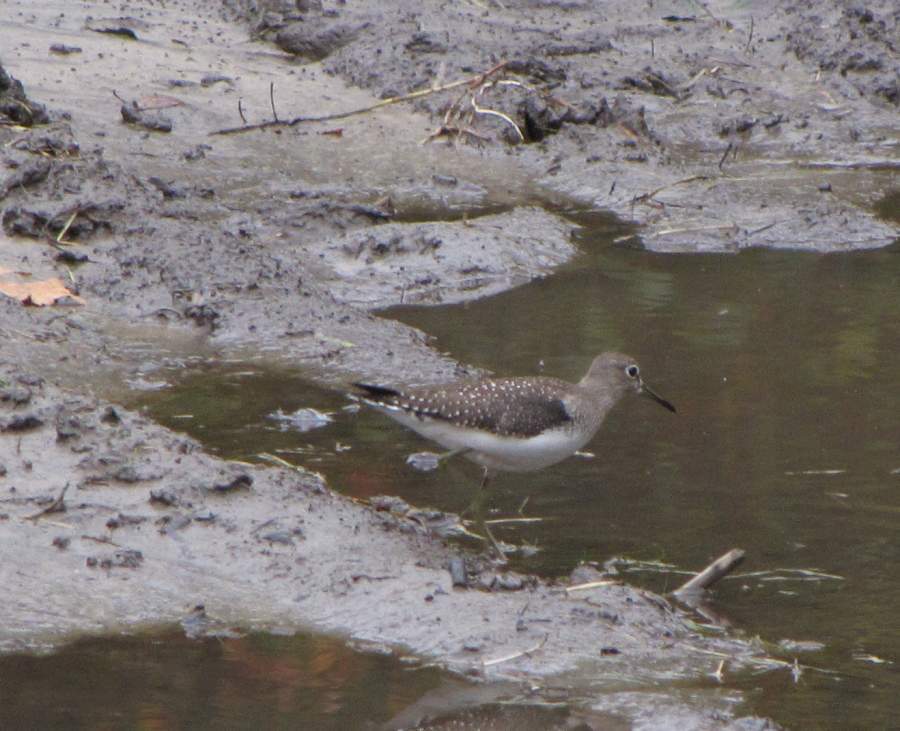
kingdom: Animalia
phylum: Chordata
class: Aves
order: Charadriiformes
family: Scolopacidae
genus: Tringa
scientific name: Tringa solitaria
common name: Solitary sandpiper
